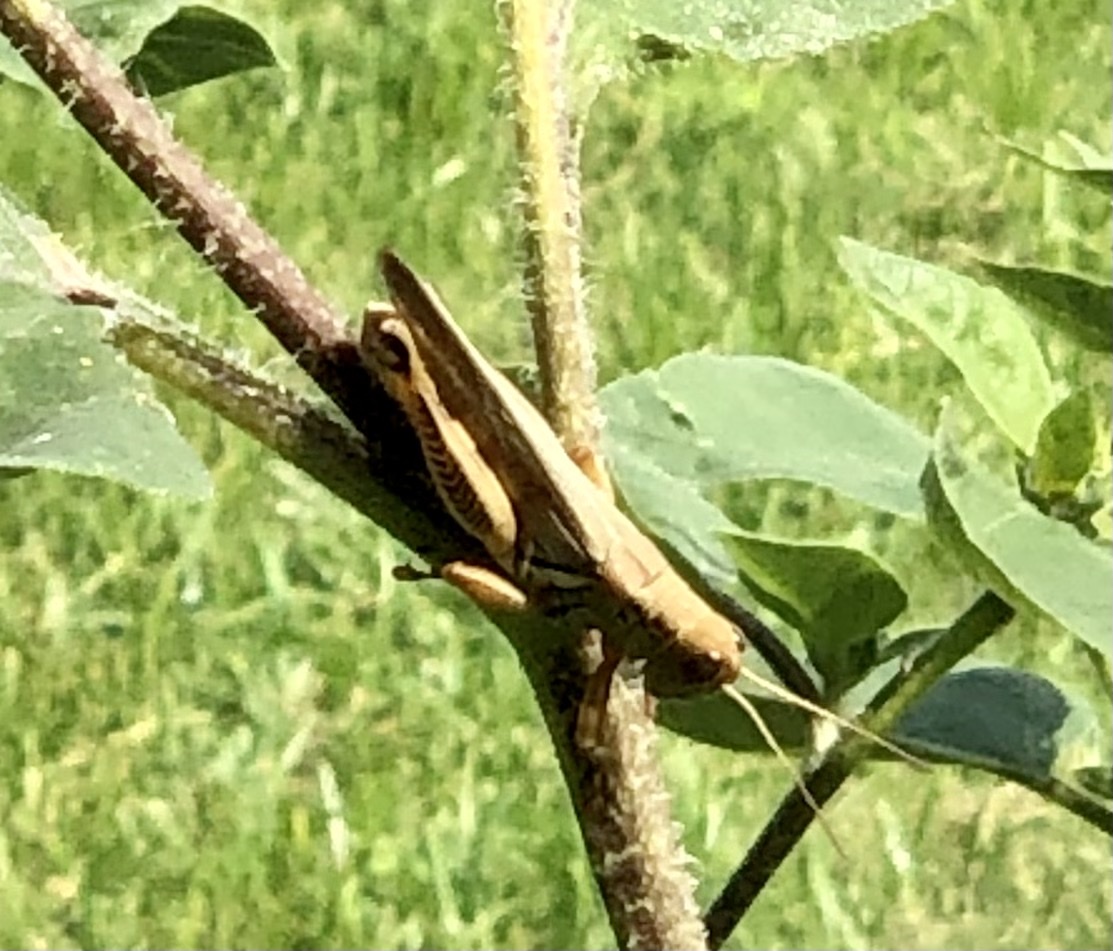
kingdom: Animalia
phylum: Arthropoda
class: Insecta
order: Orthoptera
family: Acrididae
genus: Melanoplus
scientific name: Melanoplus differentialis
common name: Differential grasshopper
